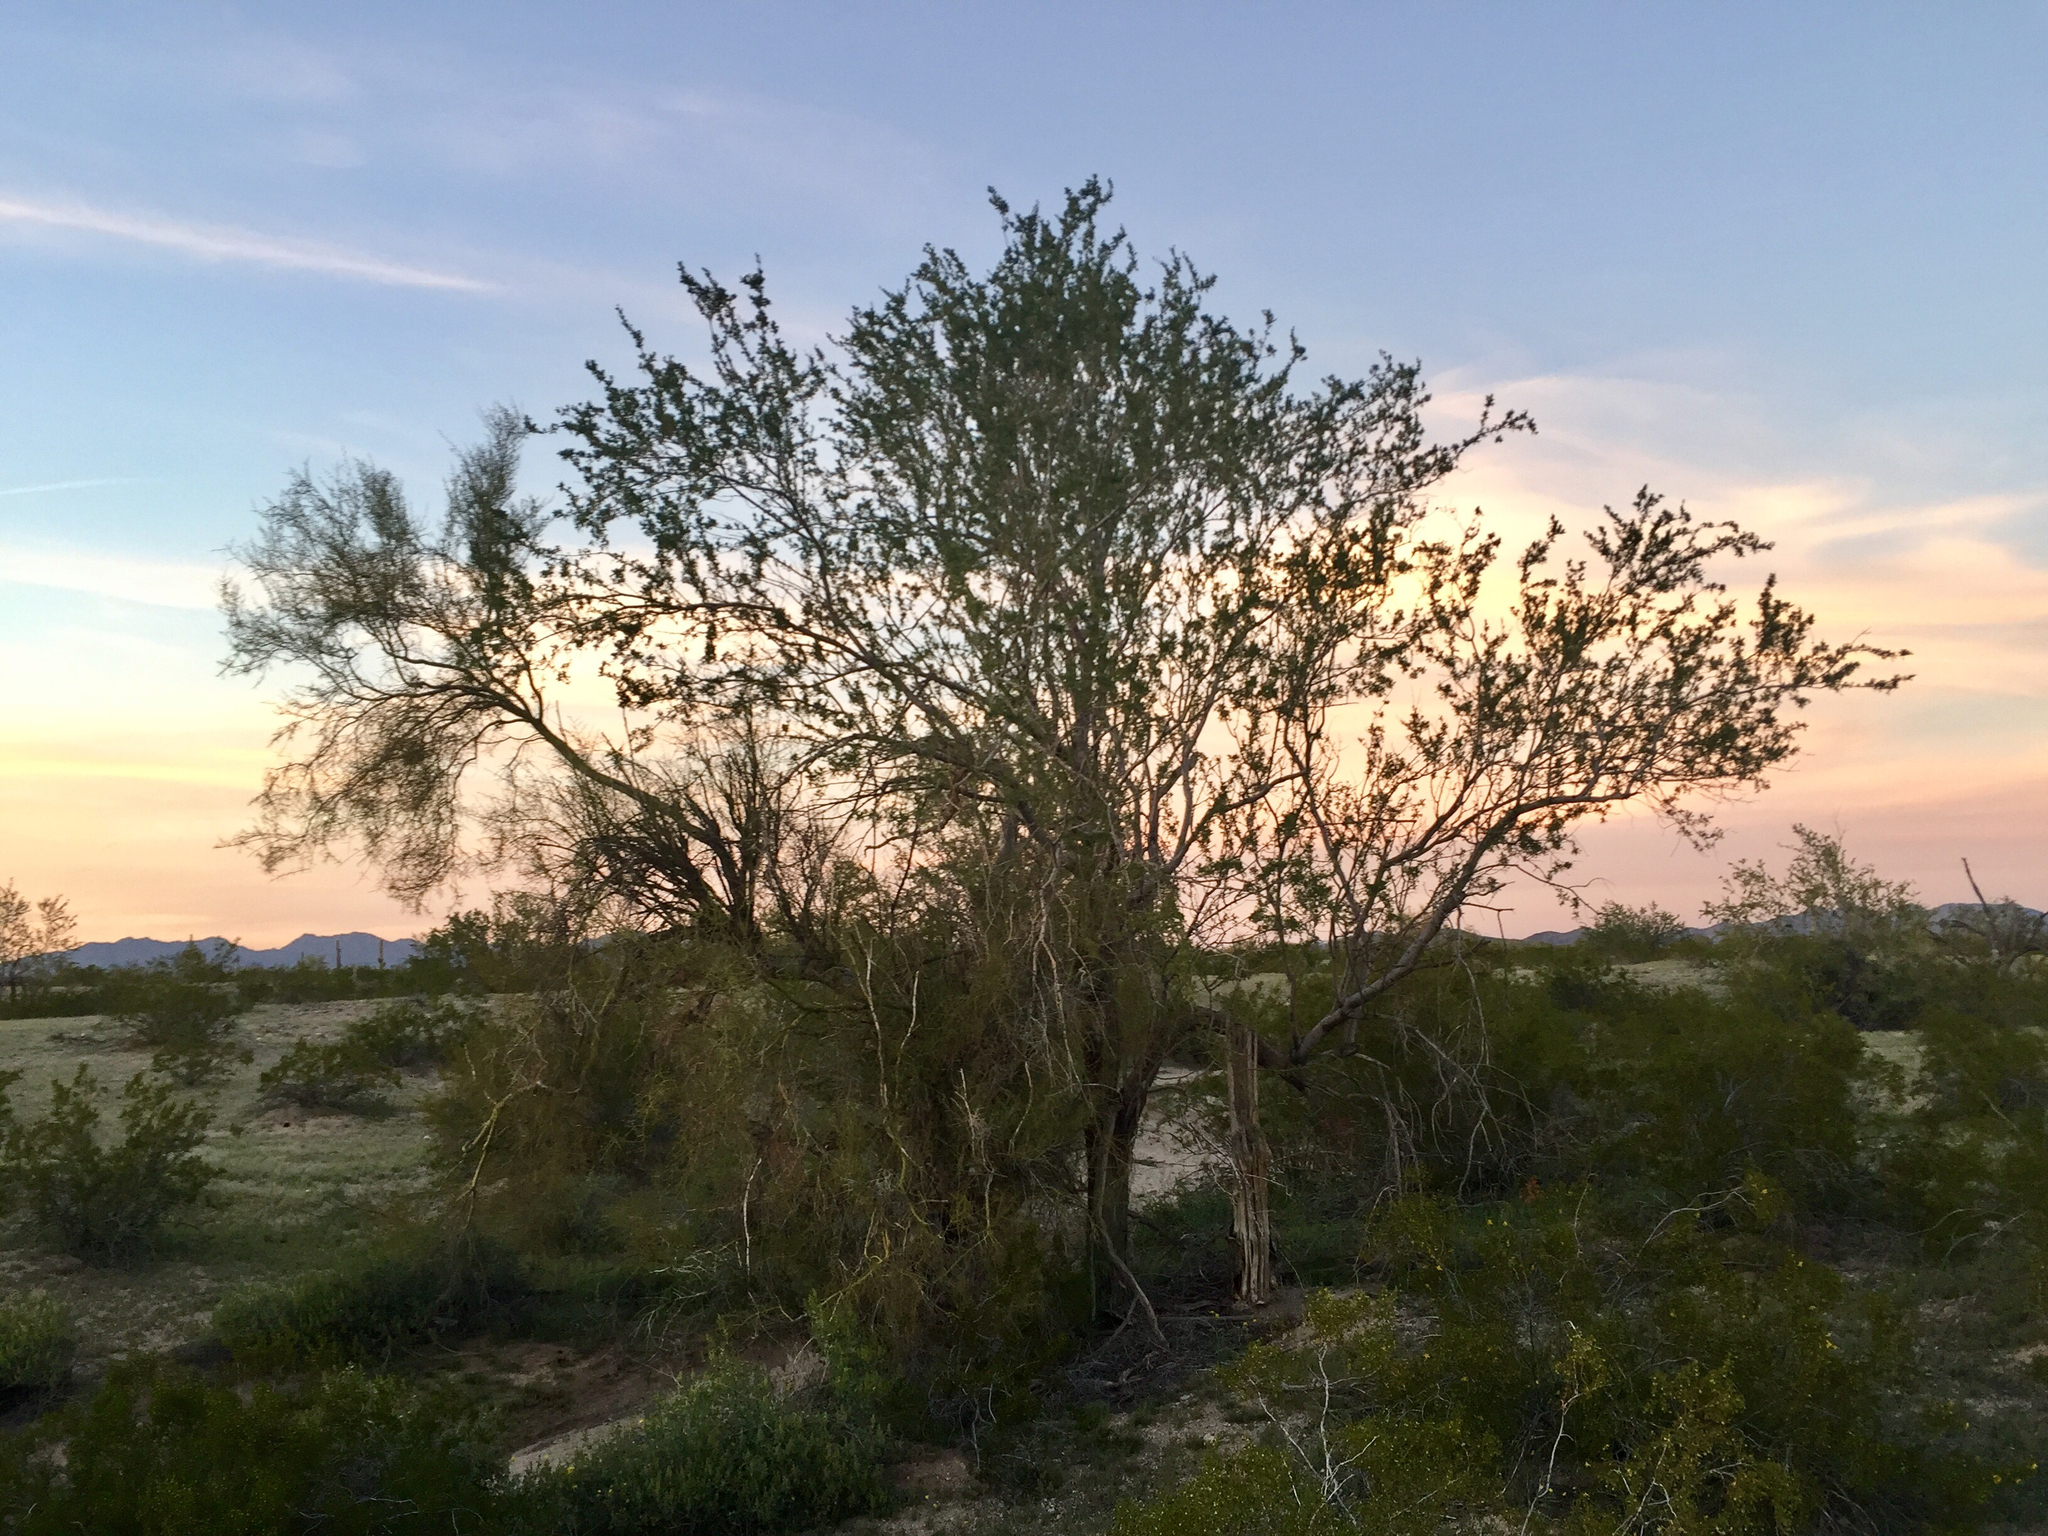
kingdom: Plantae
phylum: Tracheophyta
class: Magnoliopsida
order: Fabales
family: Fabaceae
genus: Olneya
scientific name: Olneya tesota
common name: Desert ironwood
